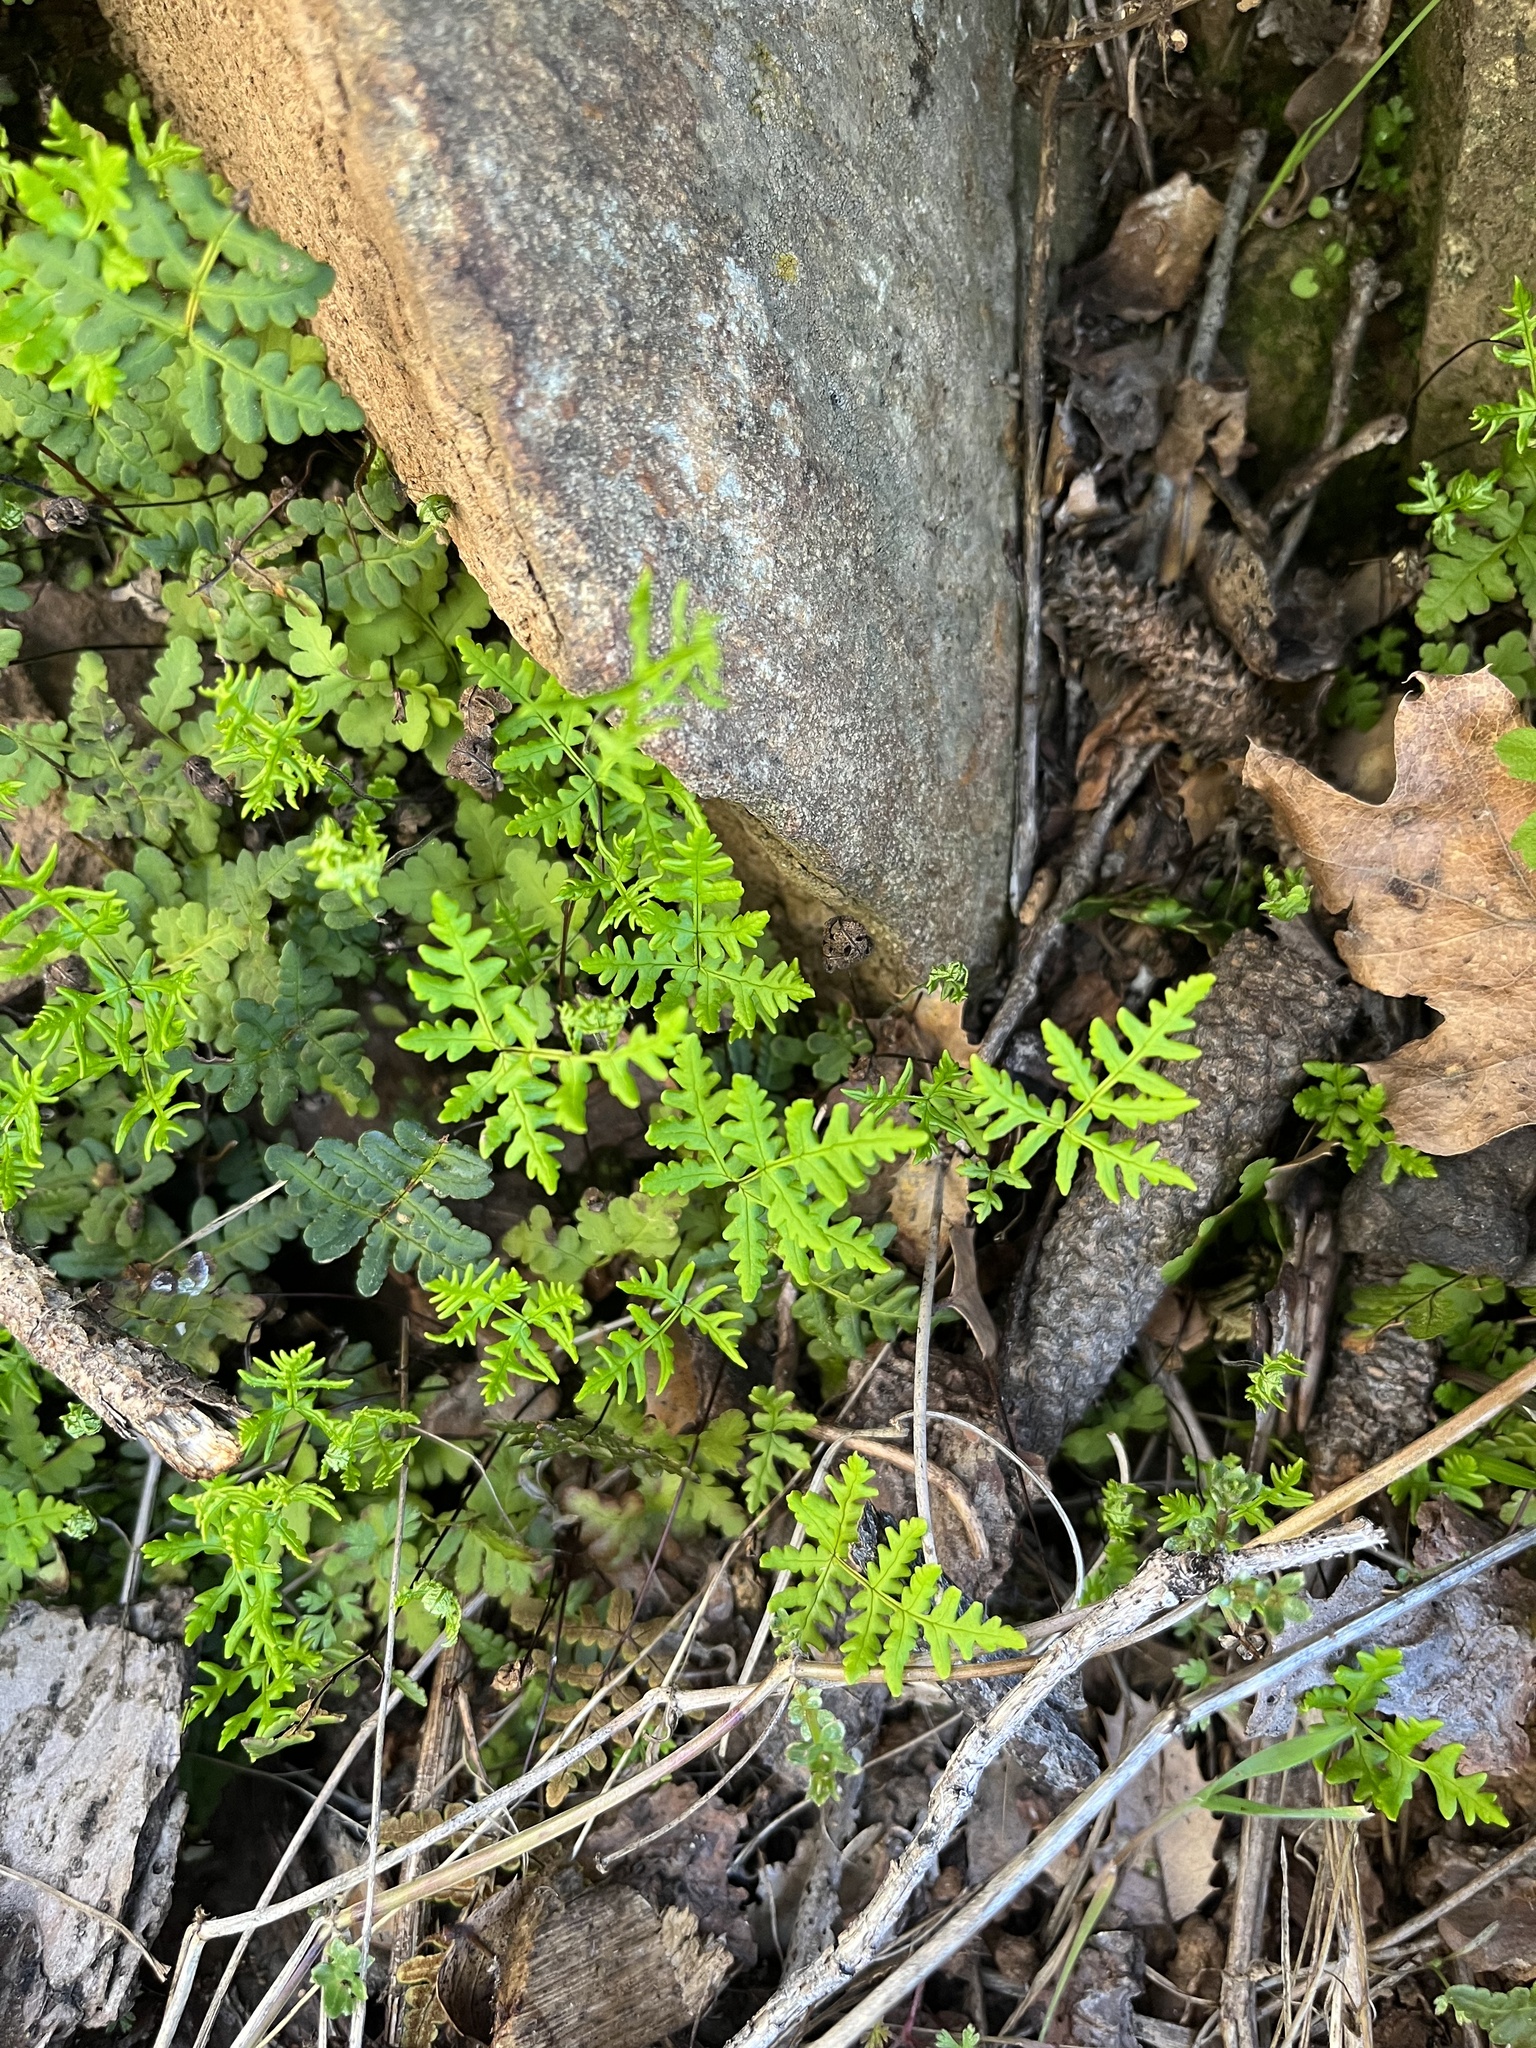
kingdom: Plantae
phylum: Tracheophyta
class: Polypodiopsida
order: Polypodiales
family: Pteridaceae
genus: Pentagramma
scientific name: Pentagramma triangularis
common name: Gold fern
